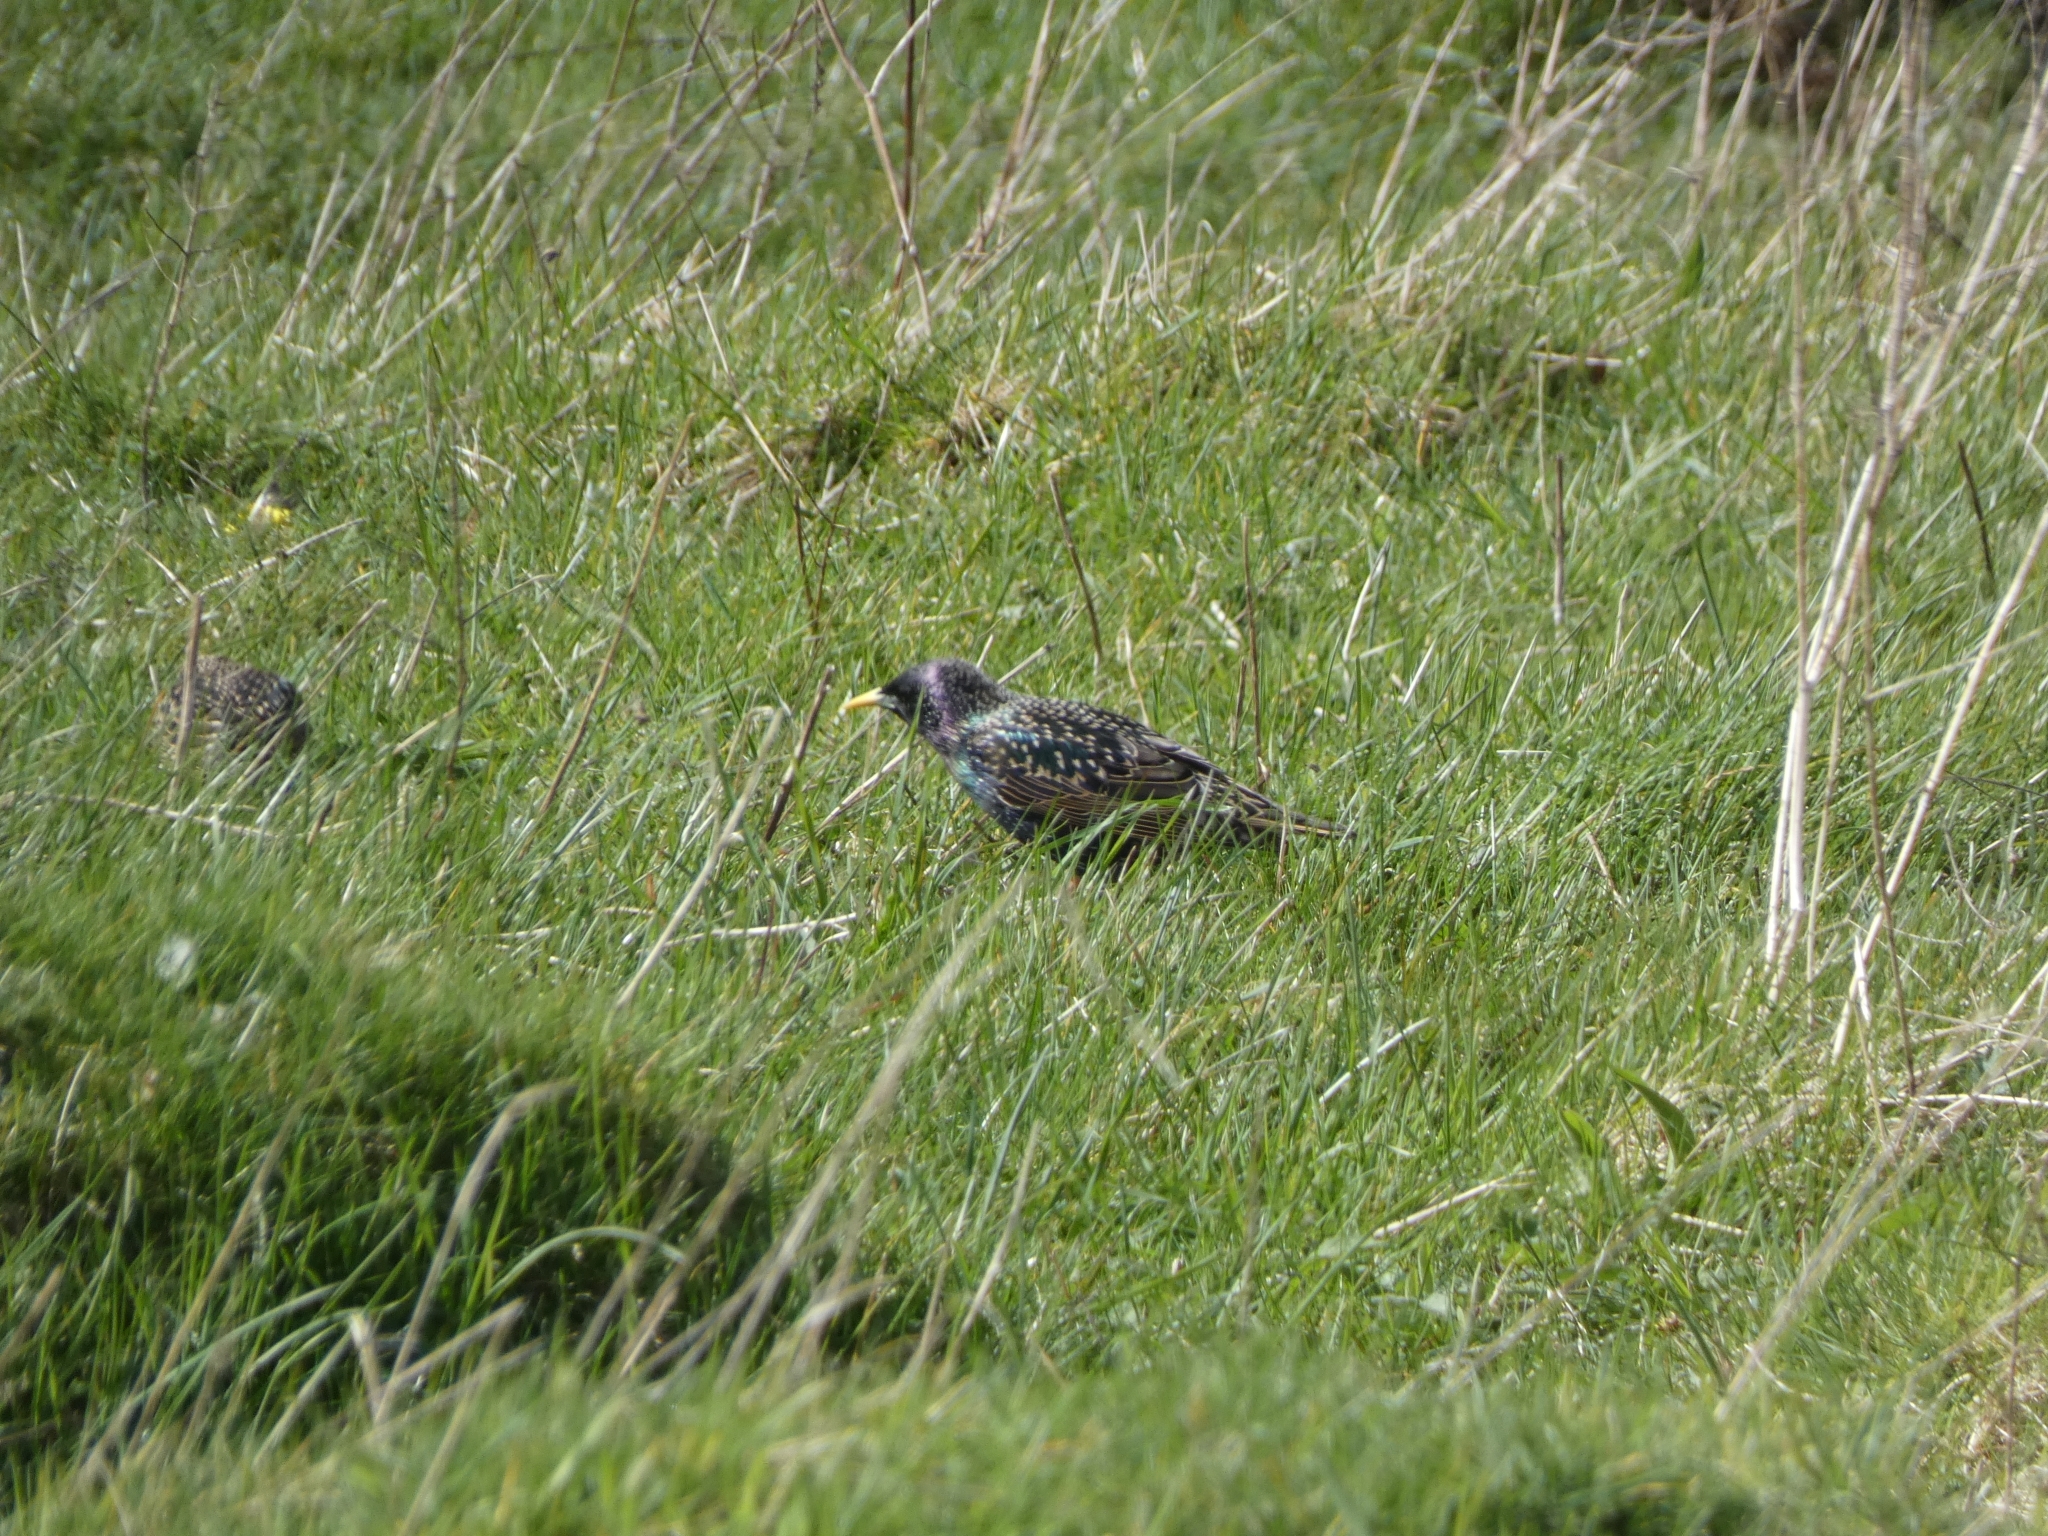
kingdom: Animalia
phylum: Chordata
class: Aves
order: Passeriformes
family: Sturnidae
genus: Sturnus
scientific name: Sturnus vulgaris
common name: Common starling
